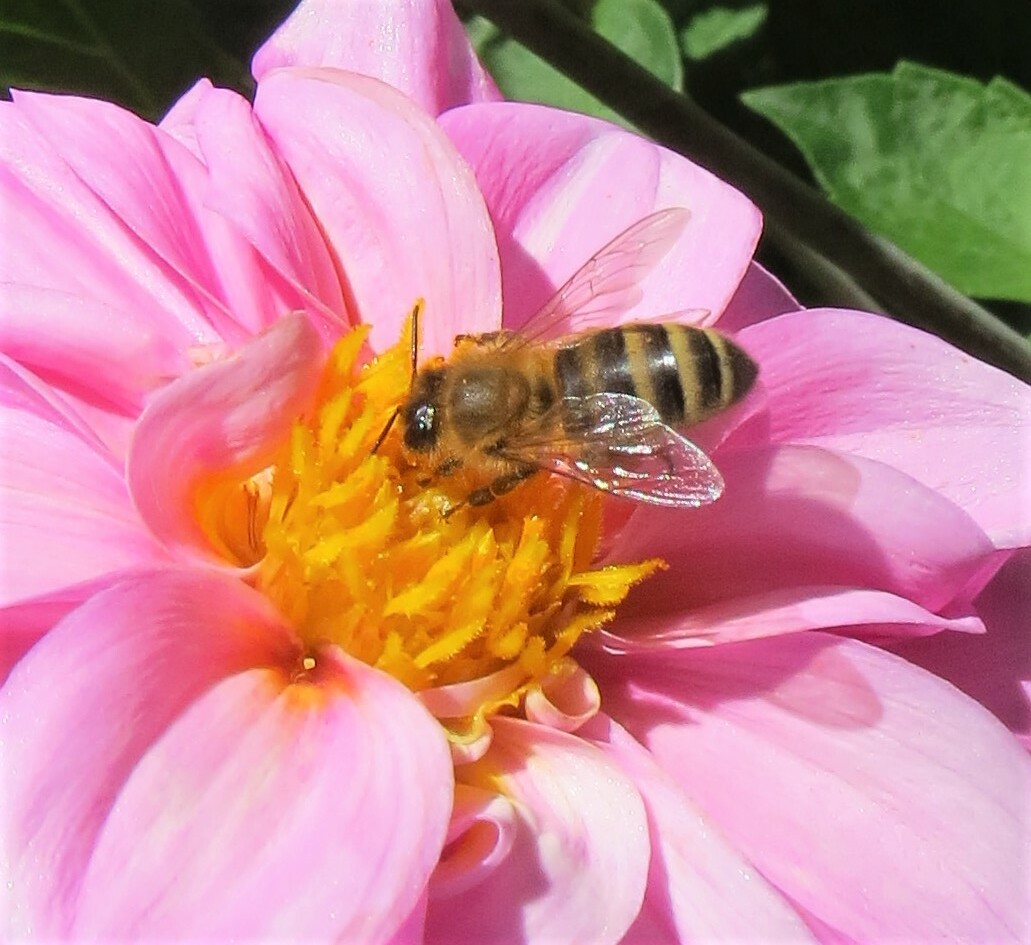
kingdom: Animalia
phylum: Arthropoda
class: Insecta
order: Hymenoptera
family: Apidae
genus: Apis
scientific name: Apis mellifera
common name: Honey bee
